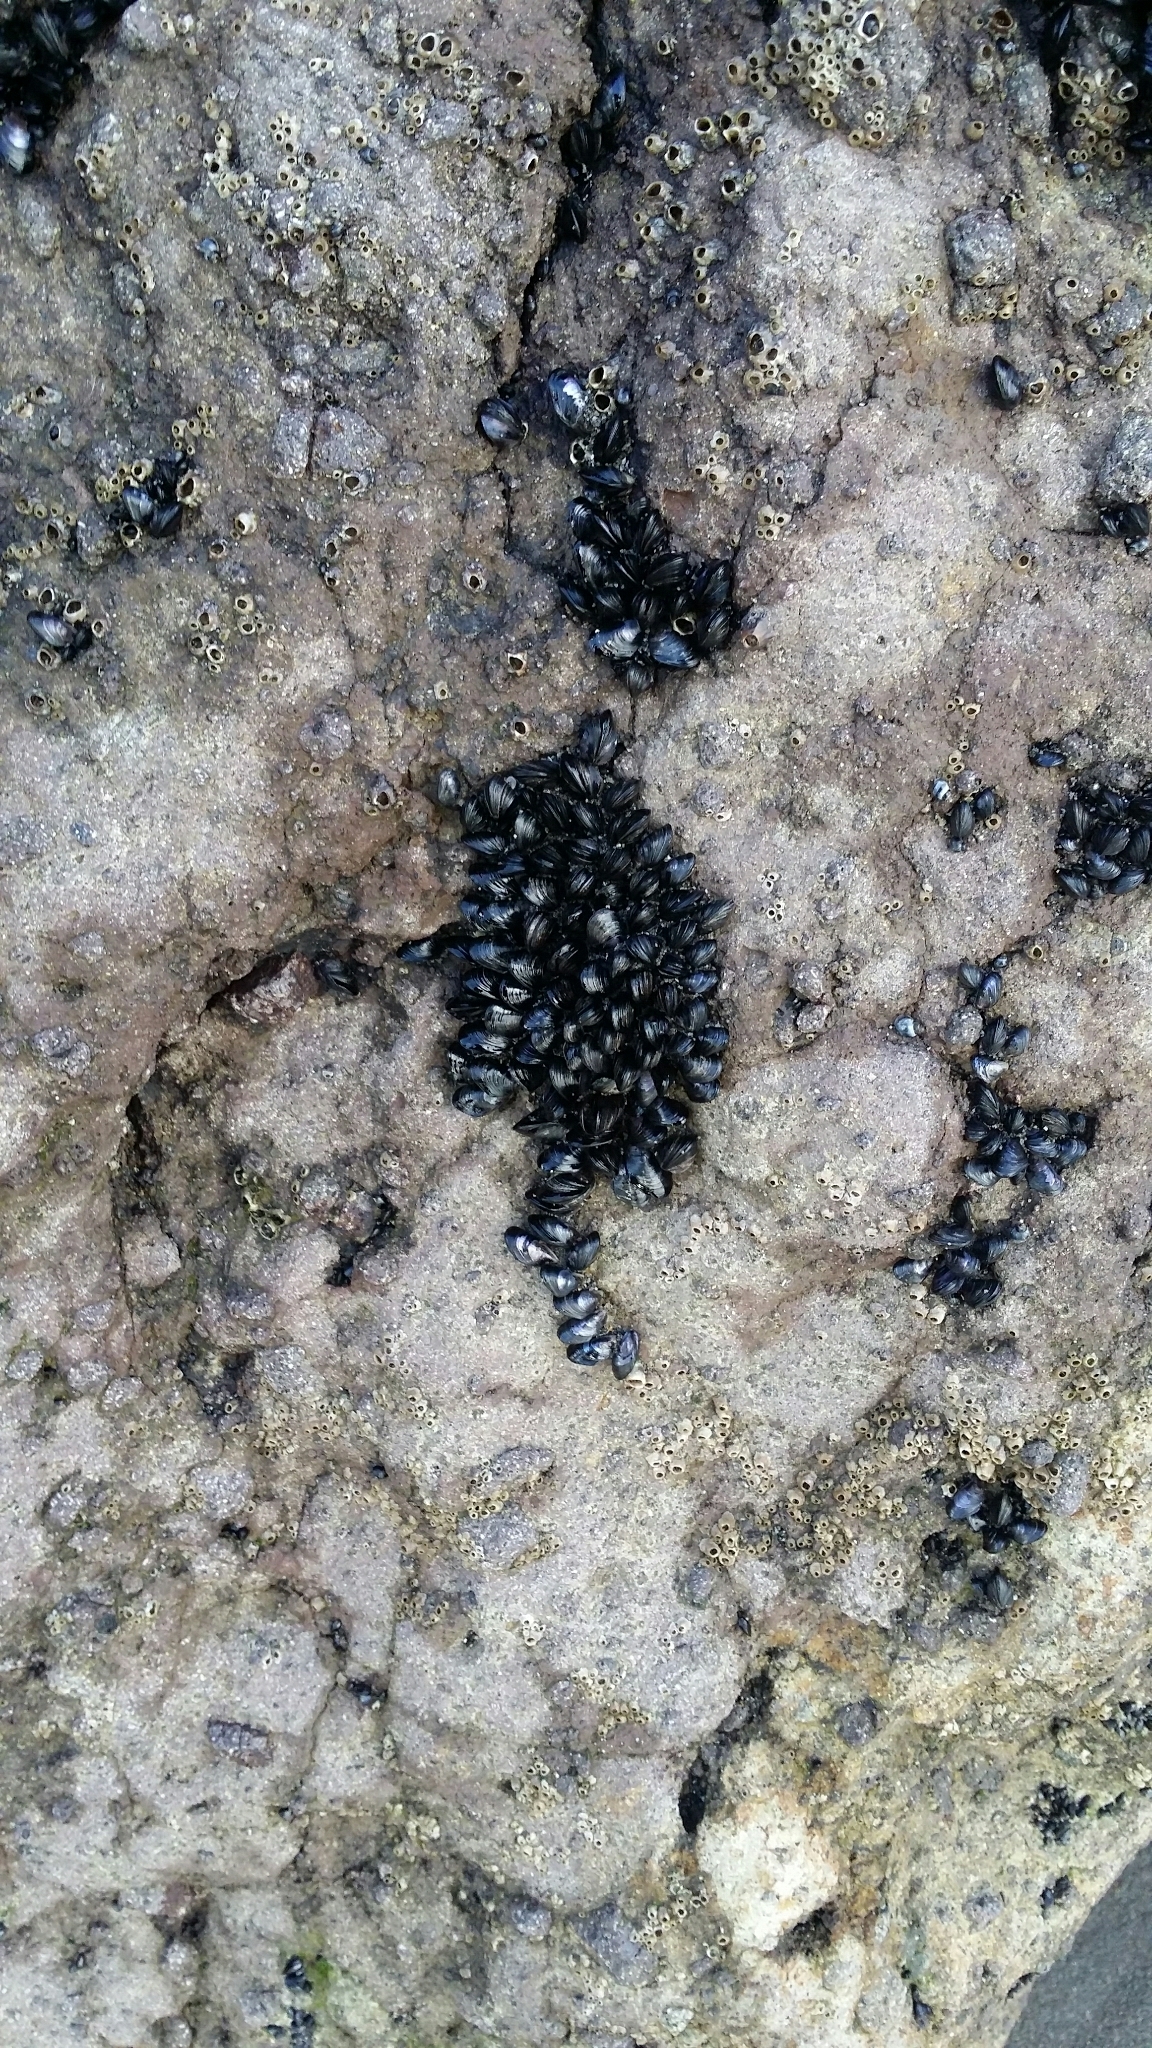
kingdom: Animalia
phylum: Mollusca
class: Bivalvia
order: Mytilida
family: Mytilidae
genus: Xenostrobus
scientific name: Xenostrobus neozelanicus
